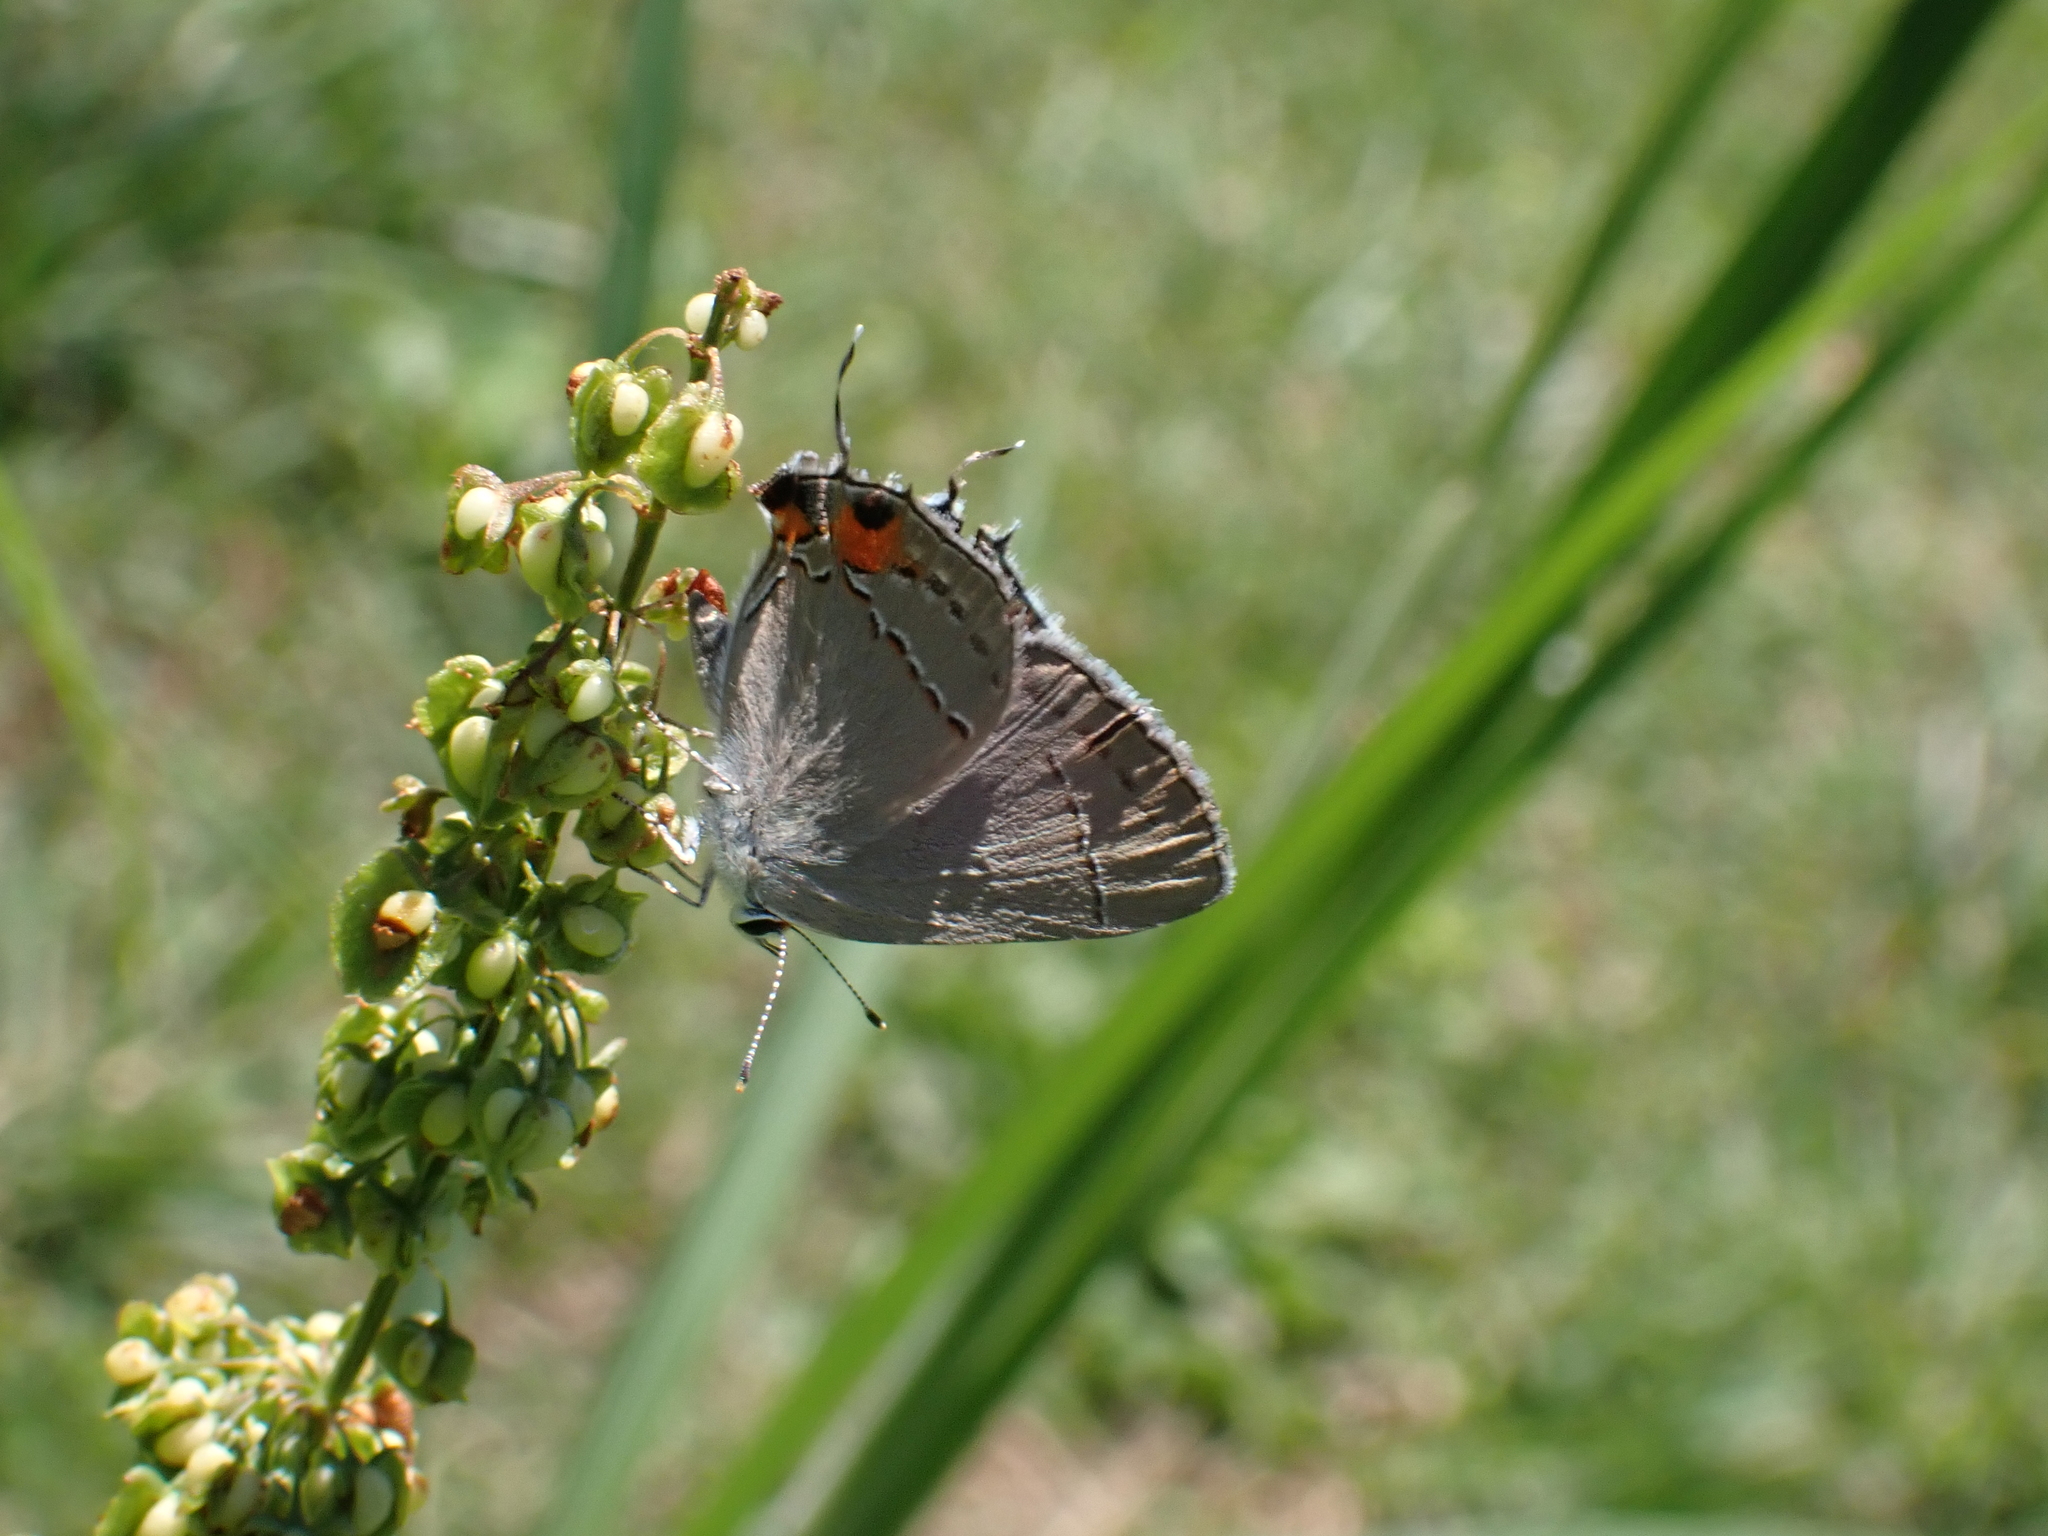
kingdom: Animalia
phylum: Arthropoda
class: Insecta
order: Lepidoptera
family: Lycaenidae
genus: Strymon
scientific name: Strymon melinus
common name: Gray hairstreak
